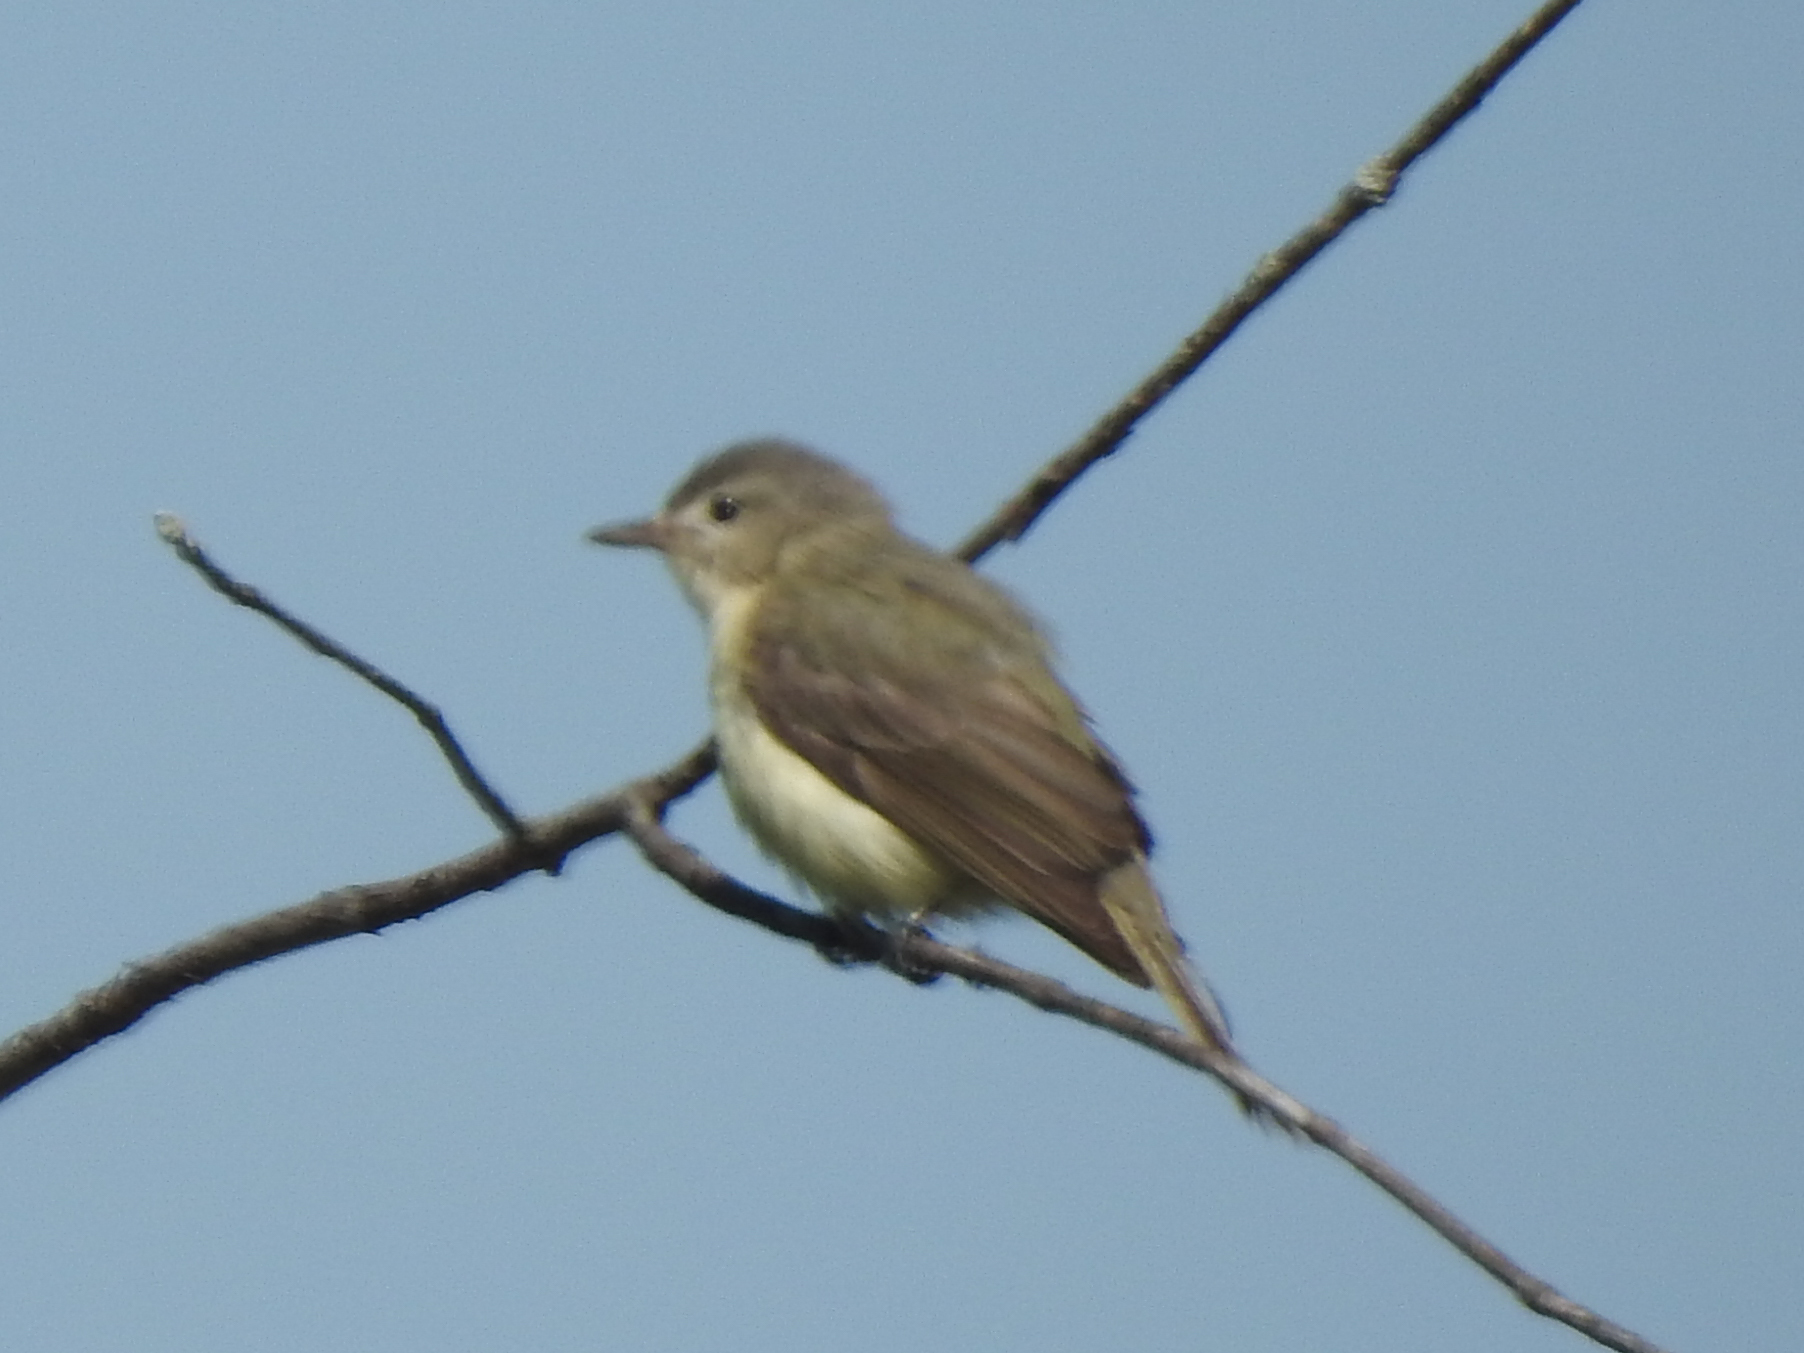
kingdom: Animalia
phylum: Chordata
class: Aves
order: Passeriformes
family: Vireonidae
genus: Vireo
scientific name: Vireo gilvus
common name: Warbling vireo
